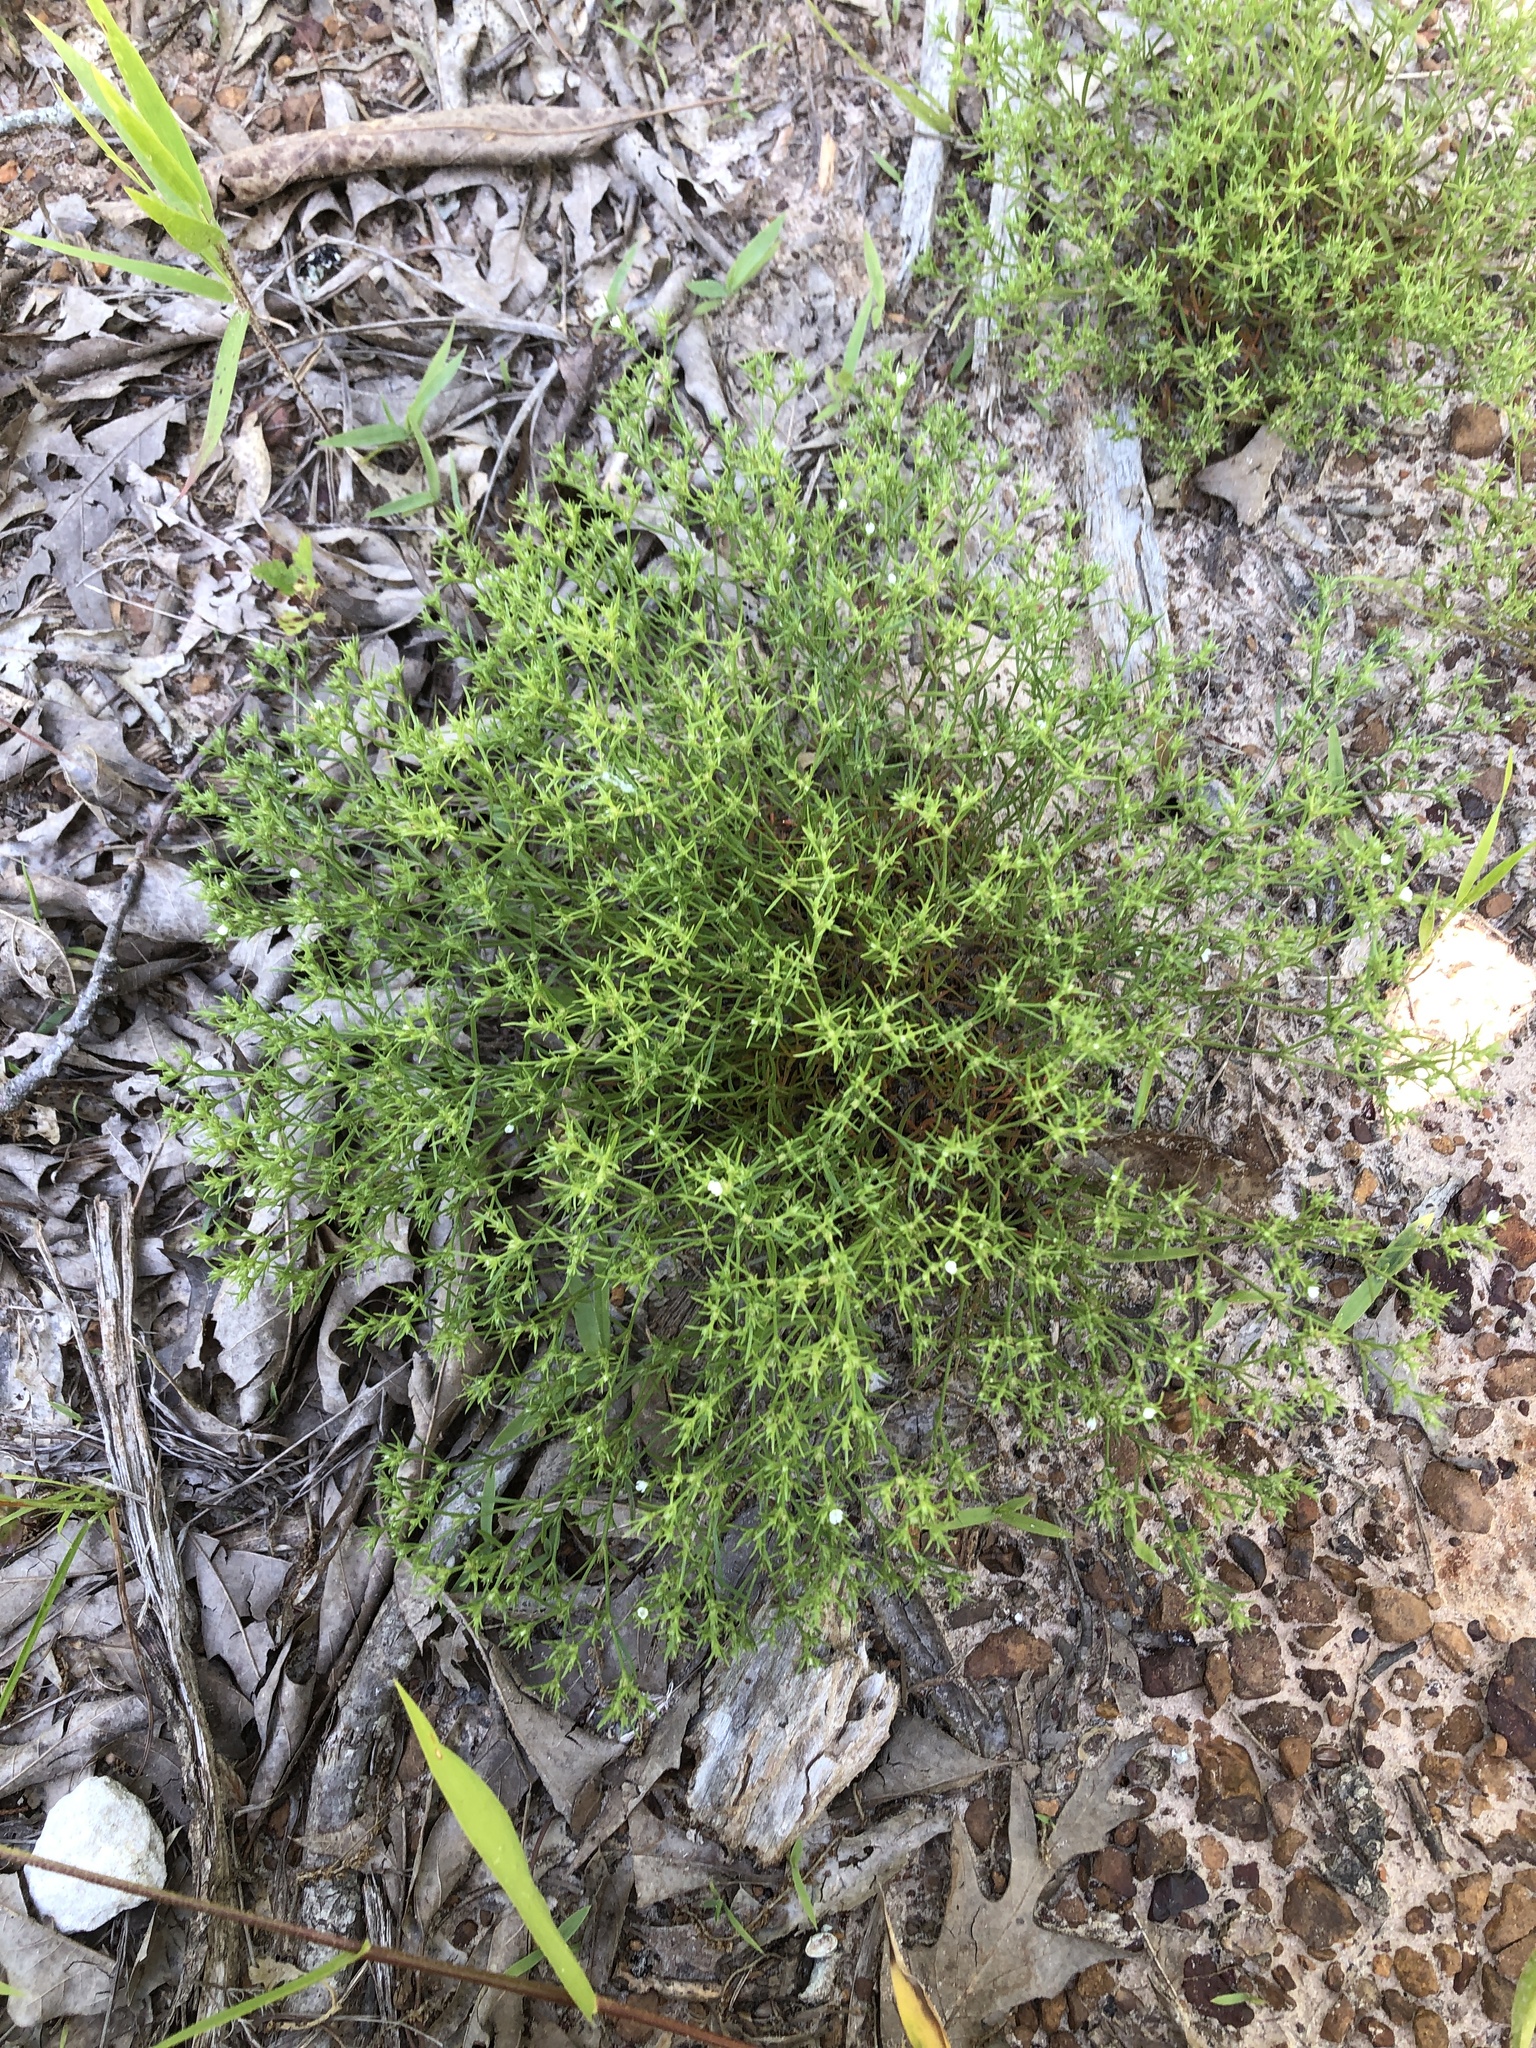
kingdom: Plantae
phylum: Tracheophyta
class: Magnoliopsida
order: Lamiales
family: Tetrachondraceae
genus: Polypremum
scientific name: Polypremum procumbens
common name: Juniper-leaf
